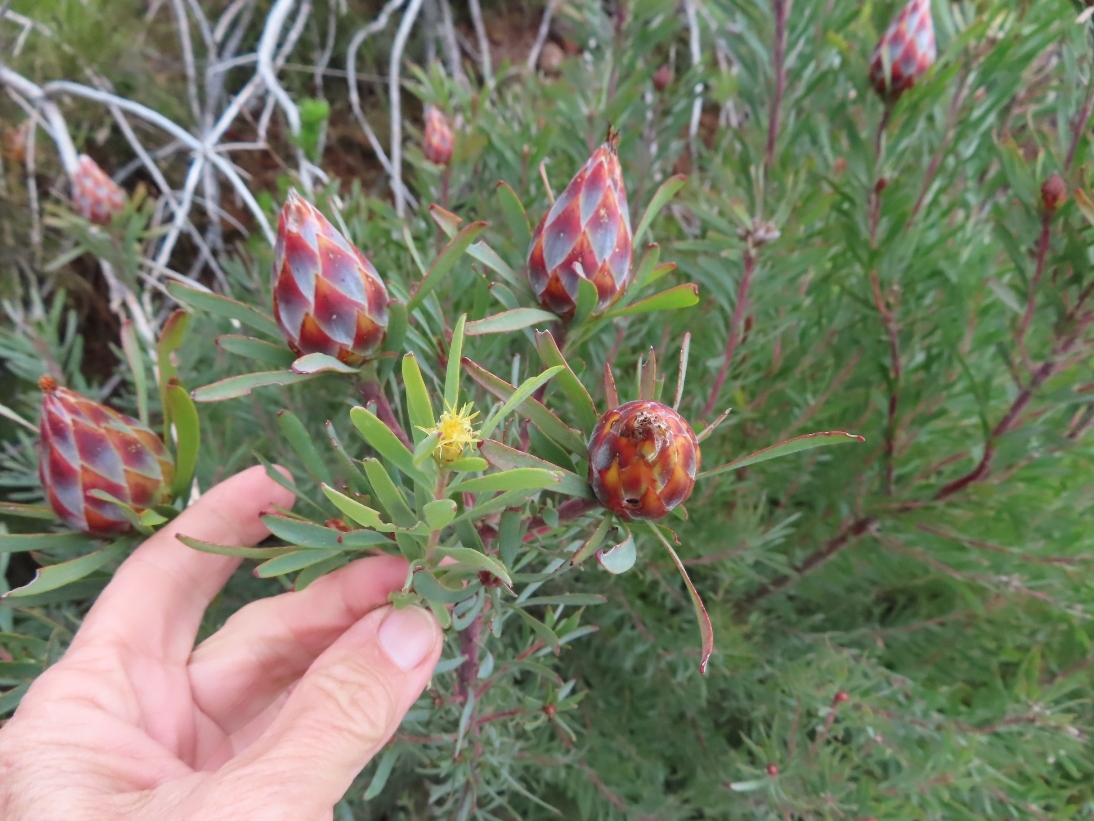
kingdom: Plantae
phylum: Tracheophyta
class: Magnoliopsida
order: Proteales
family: Proteaceae
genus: Leucadendron
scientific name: Leucadendron rubrum
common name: Spinning top
